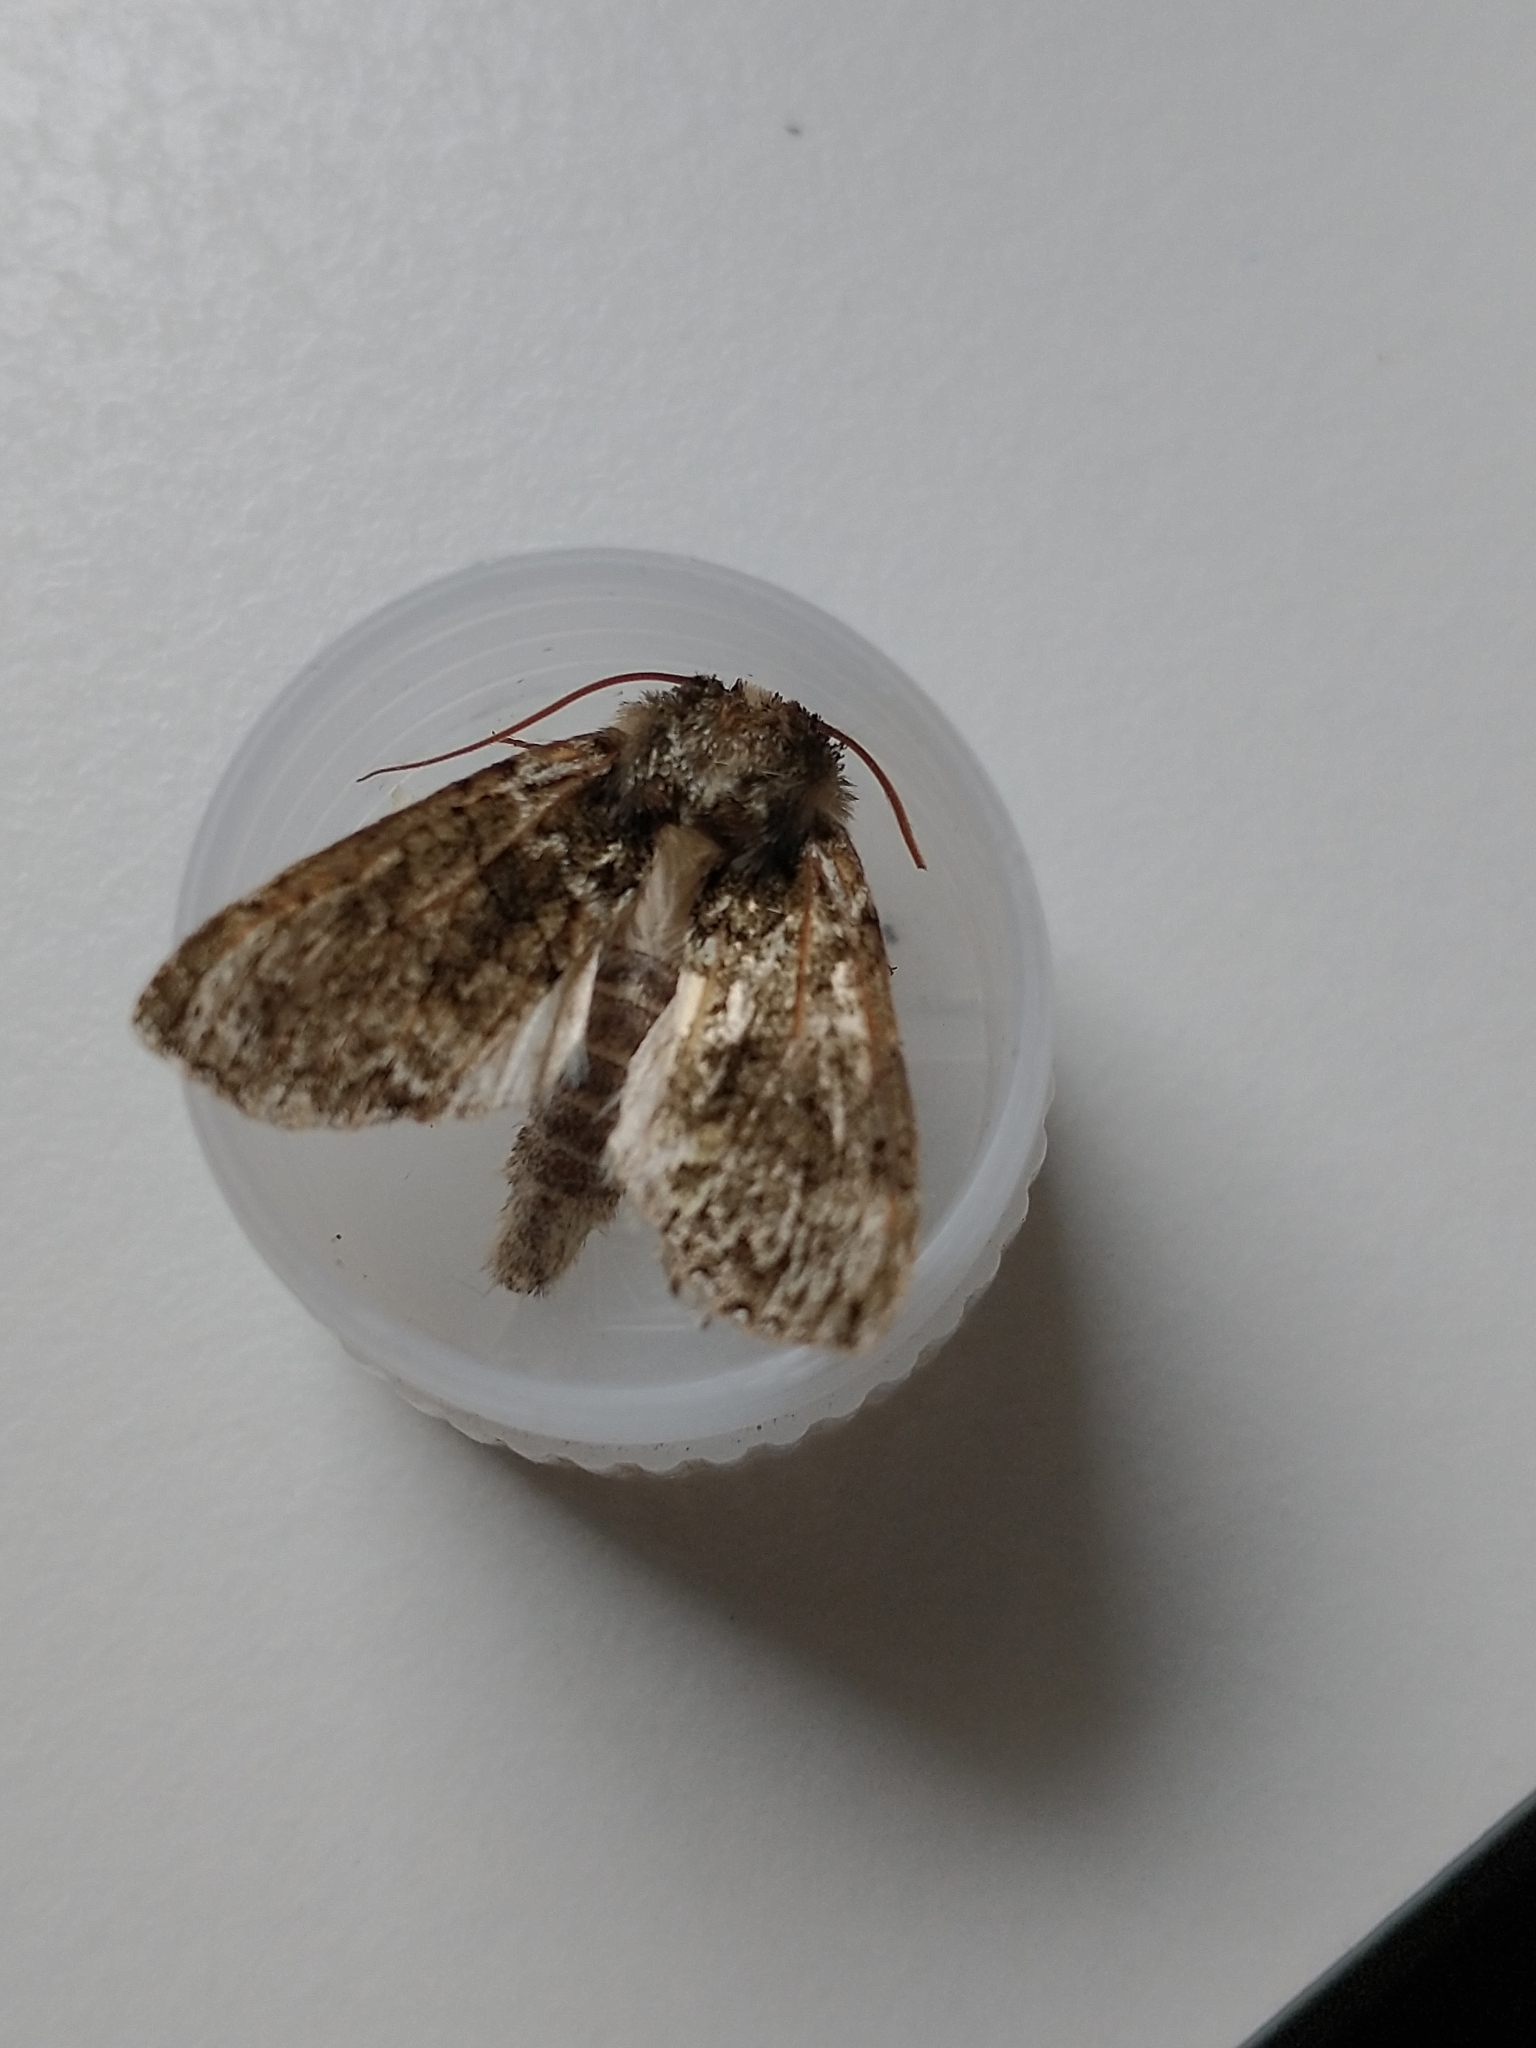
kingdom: Animalia
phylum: Arthropoda
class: Insecta
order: Lepidoptera
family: Drepanidae
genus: Polyploca
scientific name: Polyploca ridens
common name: Frosted green
